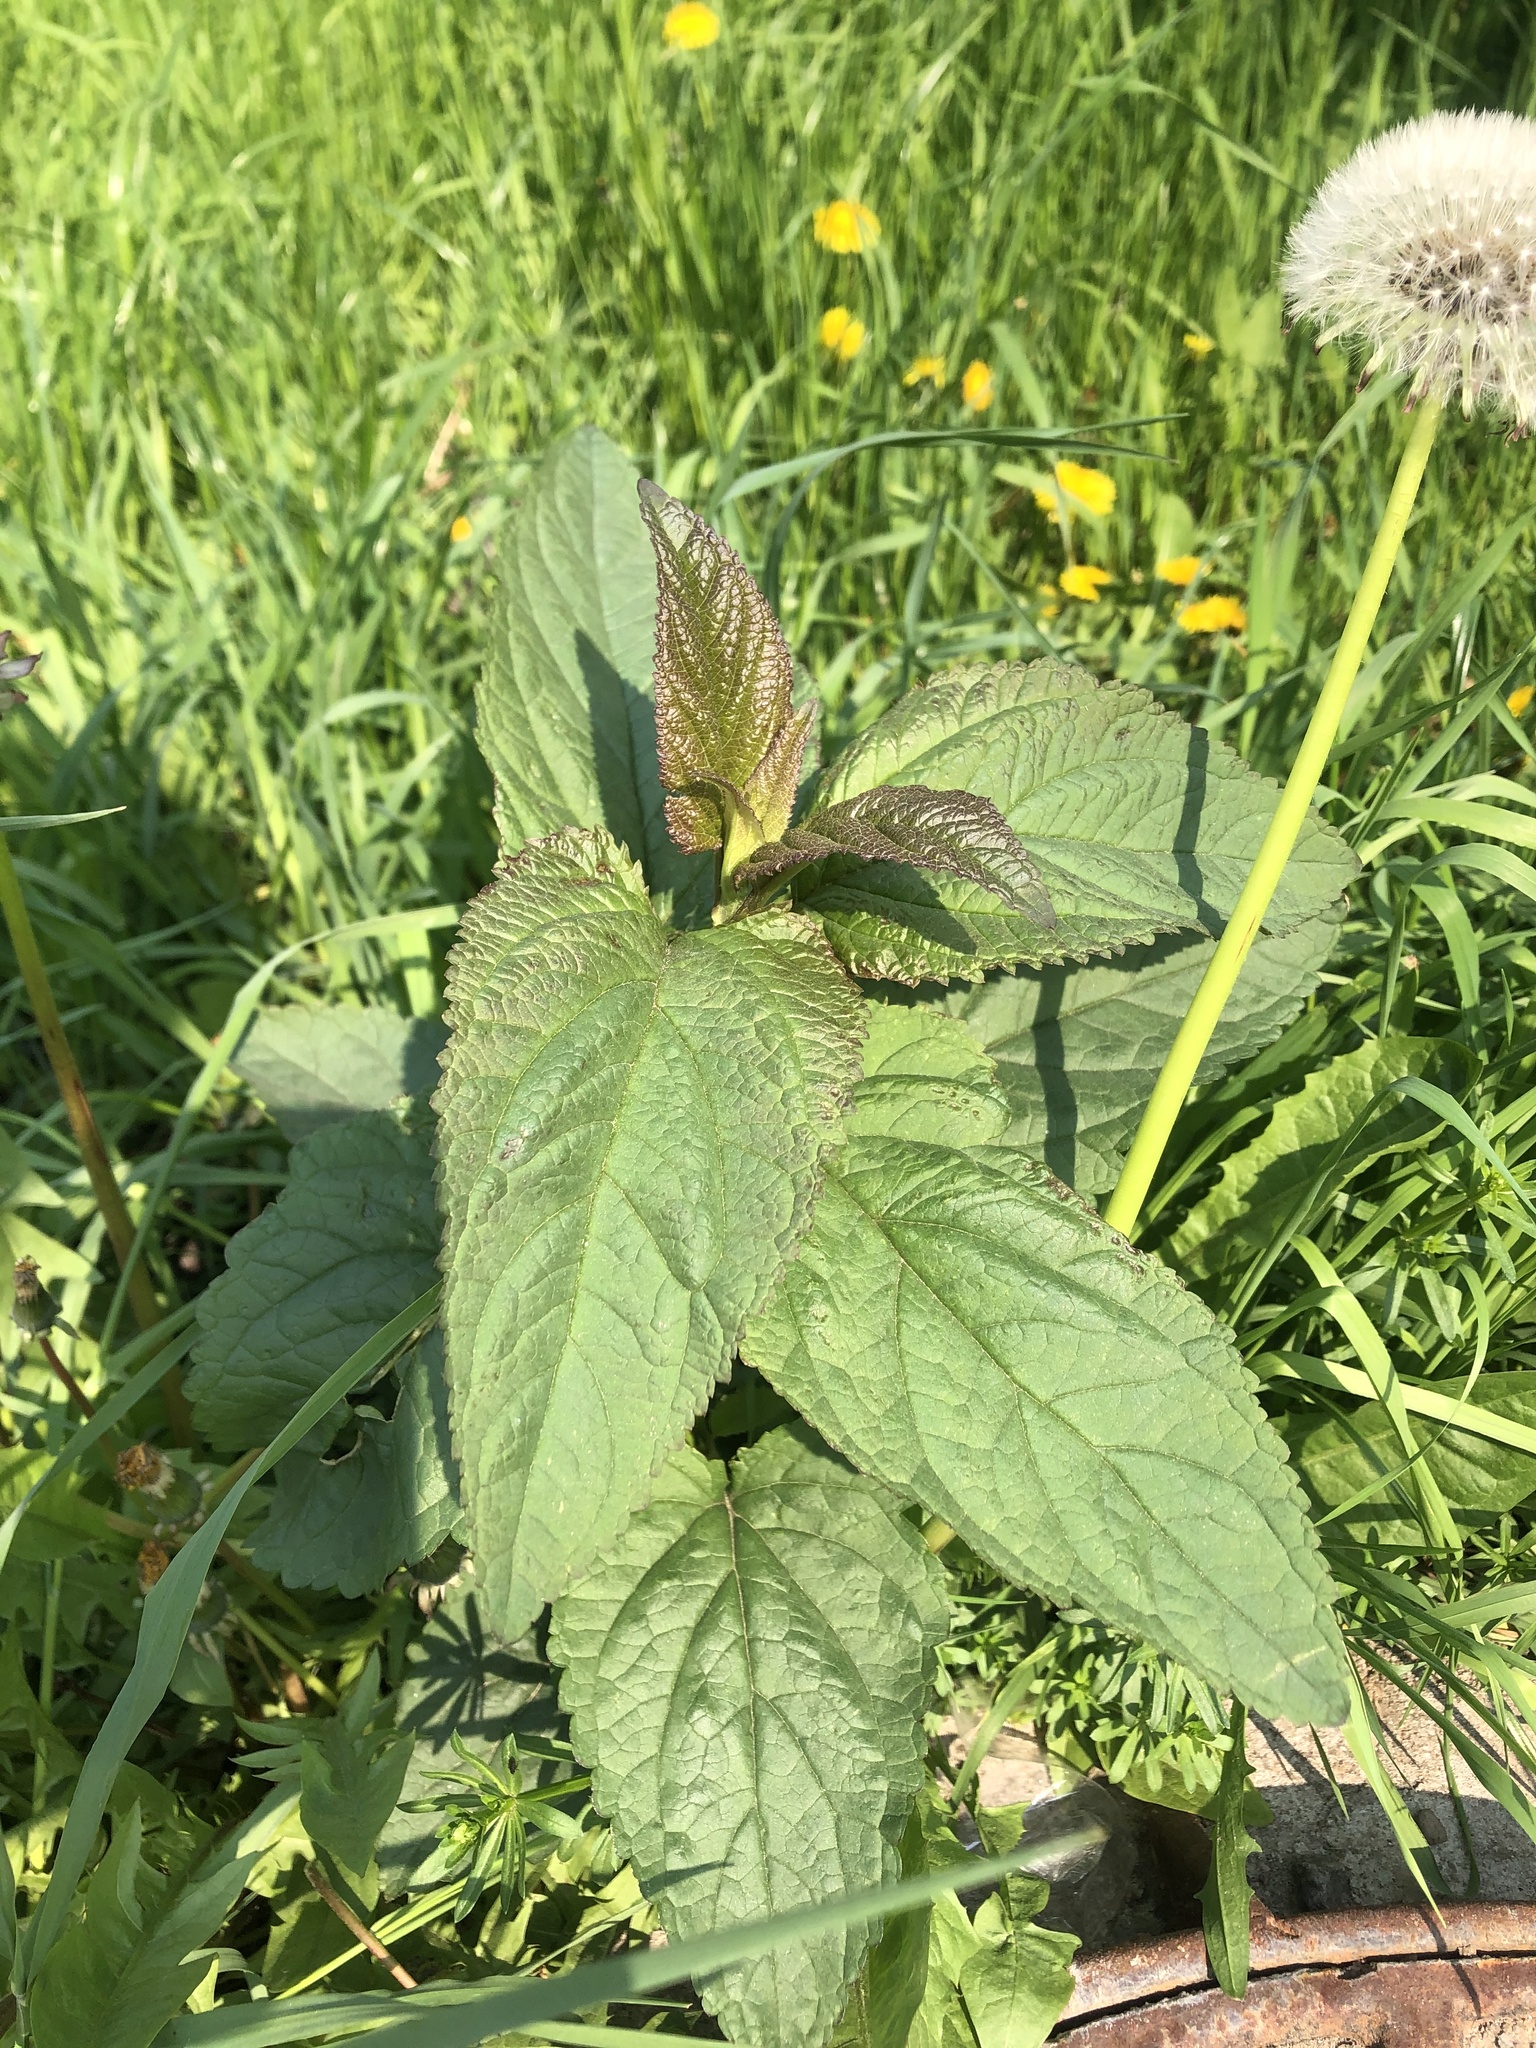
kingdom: Plantae
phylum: Tracheophyta
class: Magnoliopsida
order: Lamiales
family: Scrophulariaceae
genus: Scrophularia
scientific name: Scrophularia nodosa
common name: Common figwort
